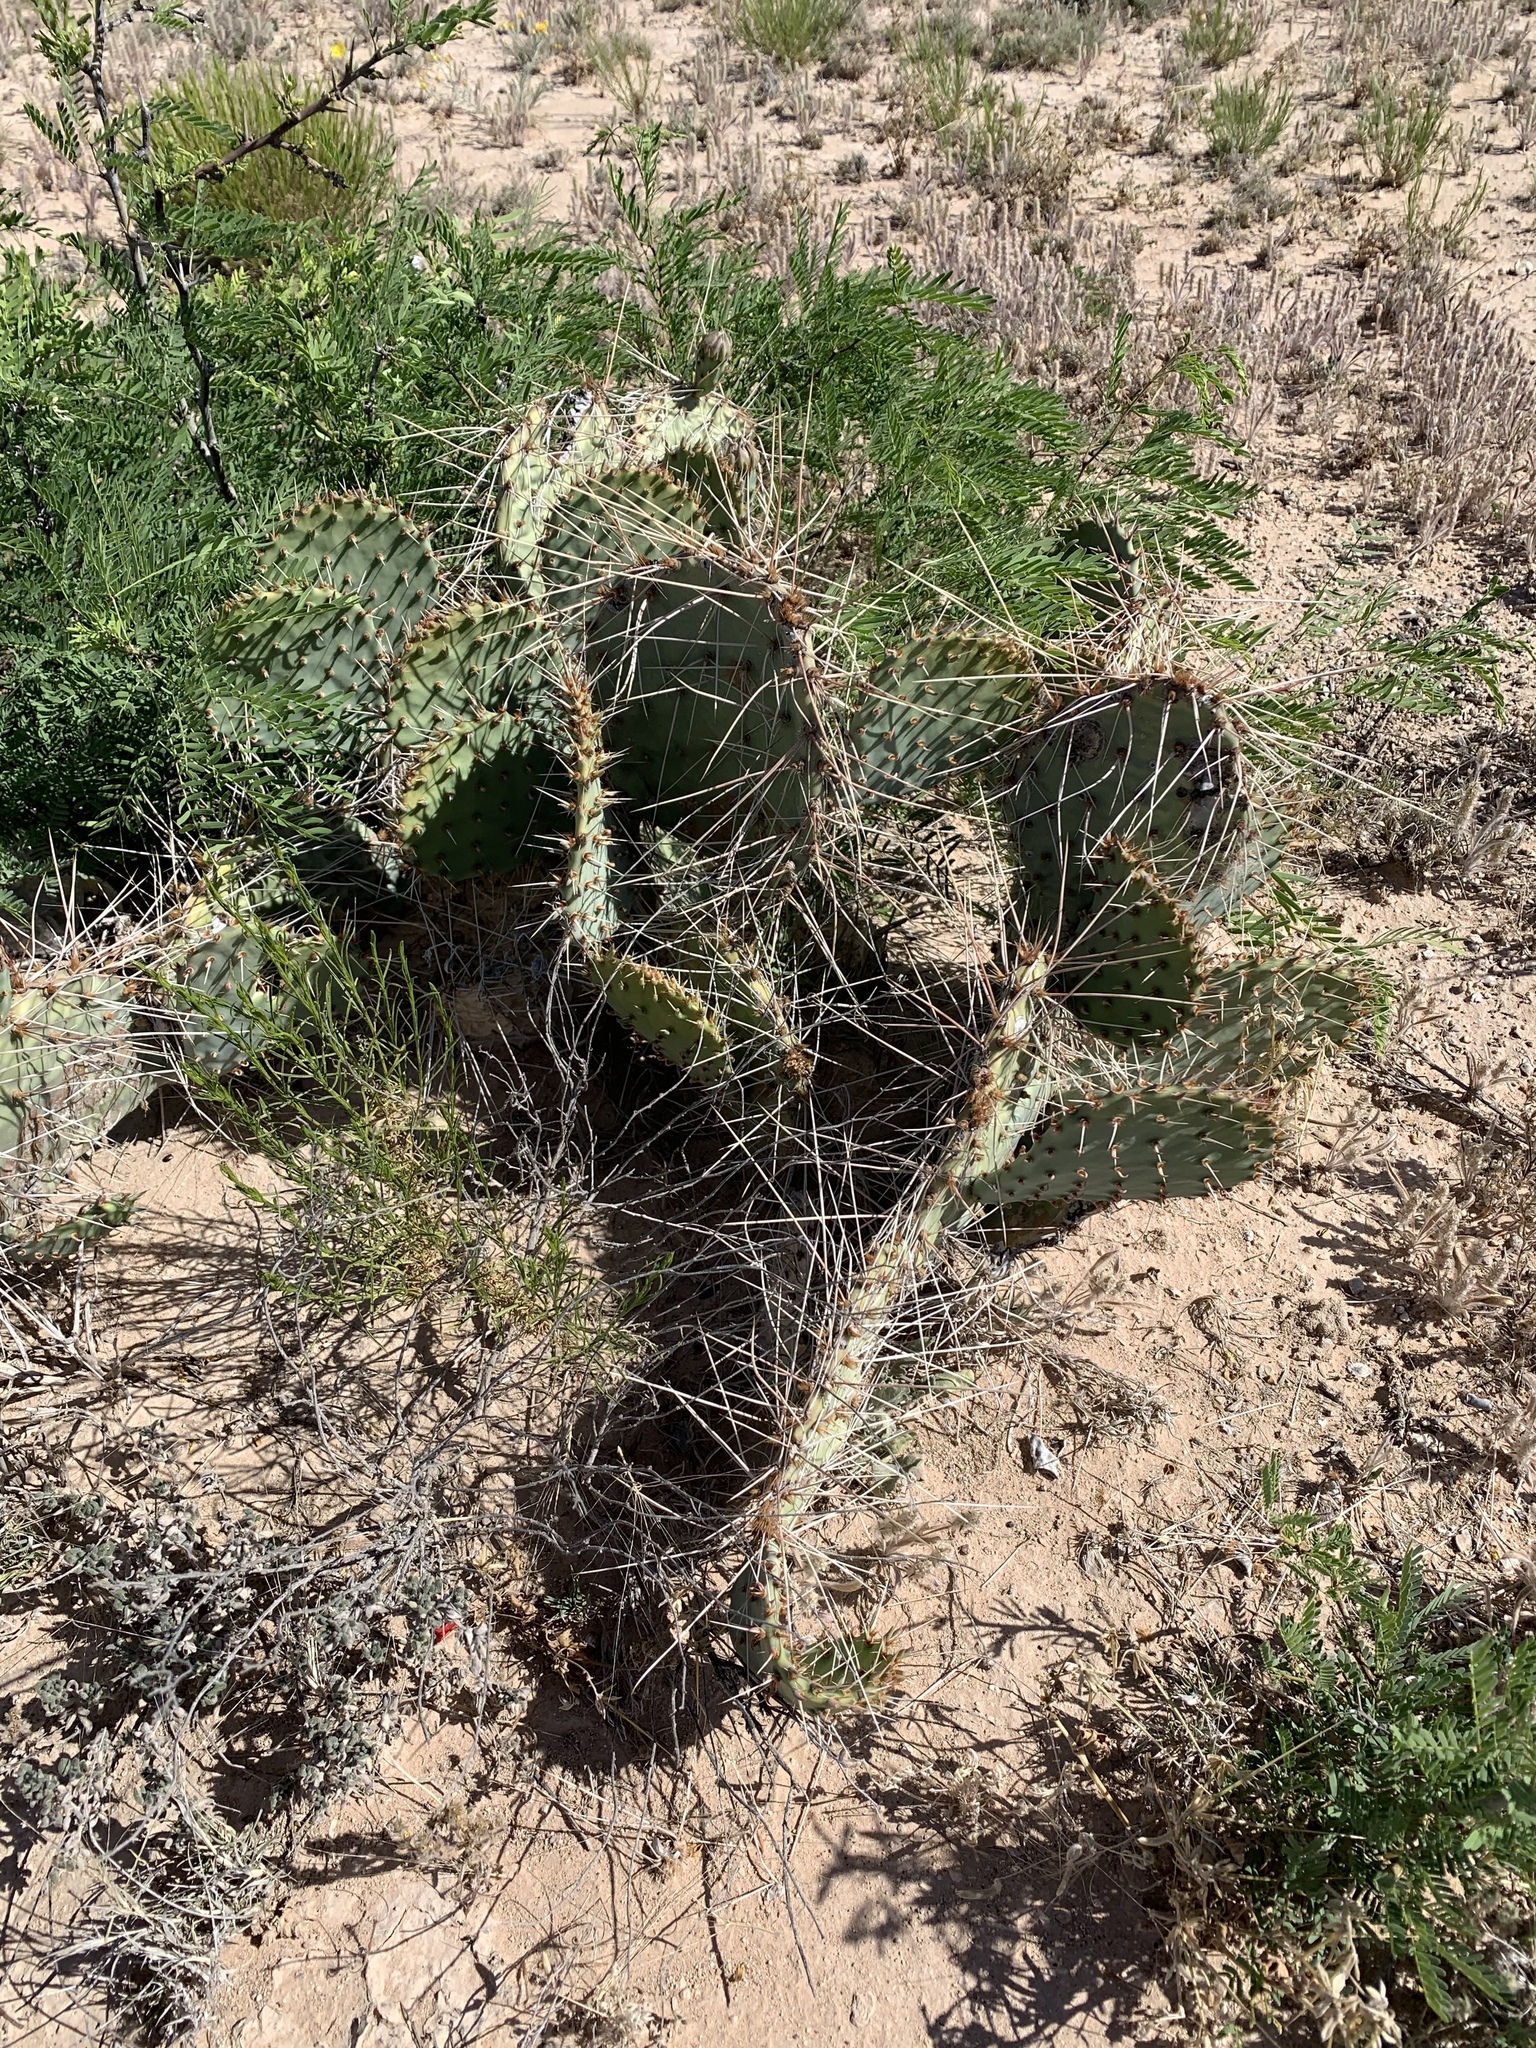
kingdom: Plantae
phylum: Tracheophyta
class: Magnoliopsida
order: Caryophyllales
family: Cactaceae
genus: Opuntia
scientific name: Opuntia macrorhiza
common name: Grassland pricklypear
